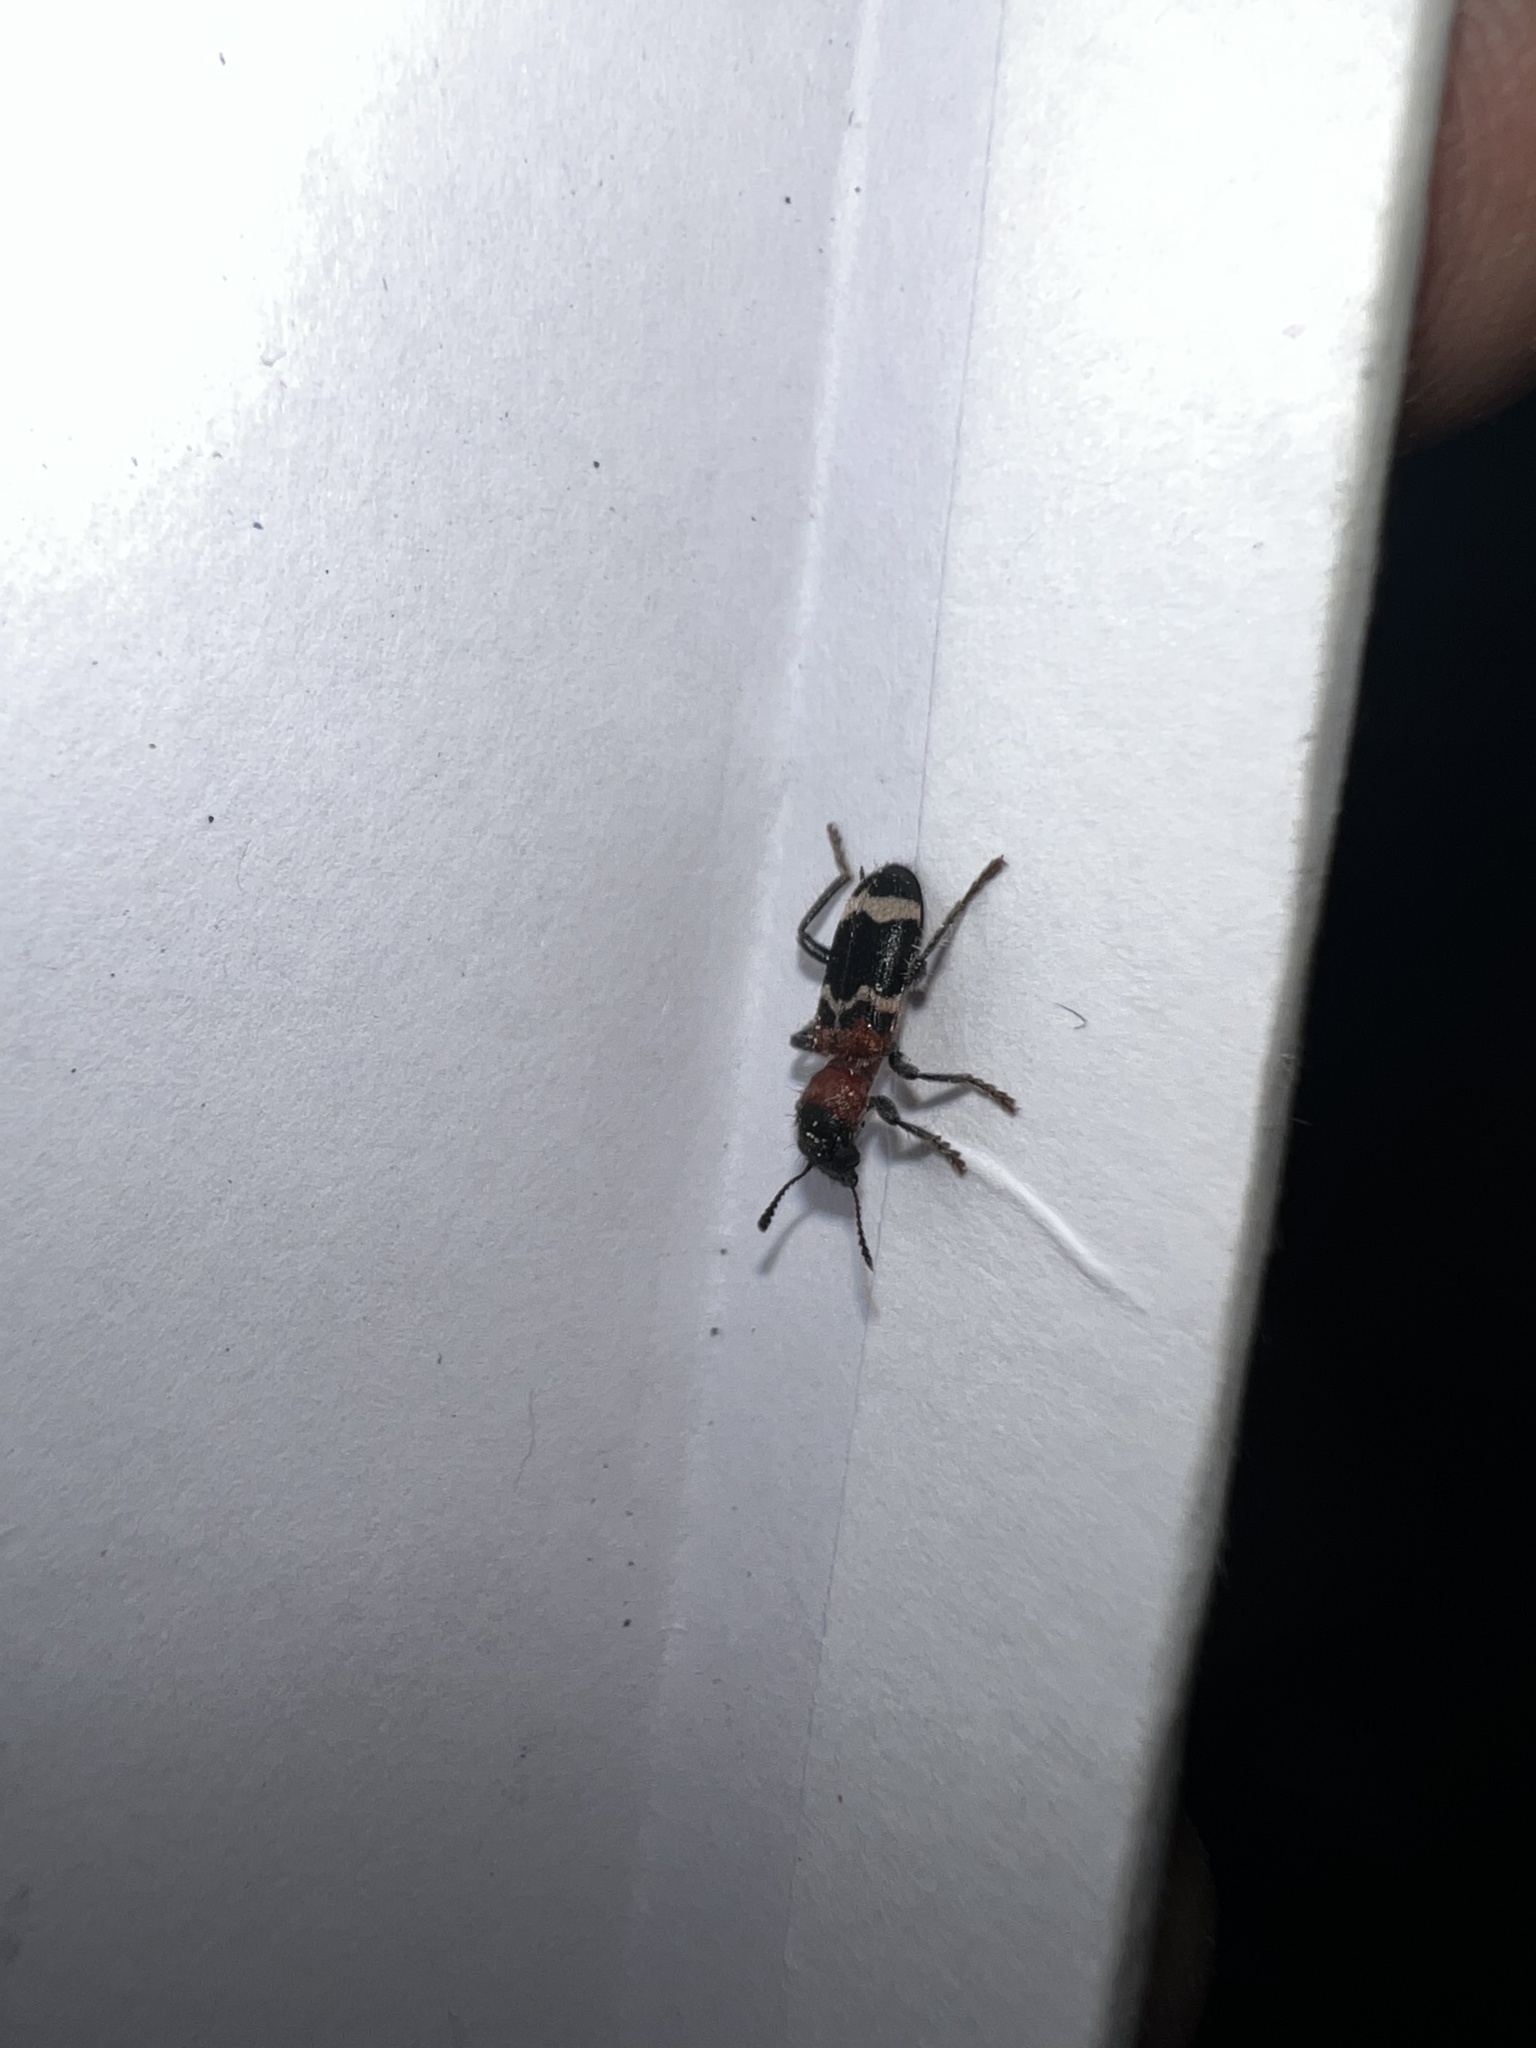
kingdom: Animalia
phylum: Arthropoda
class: Insecta
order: Coleoptera
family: Cleridae
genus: Thanasimus
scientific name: Thanasimus formicarius
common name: Ant beetle
